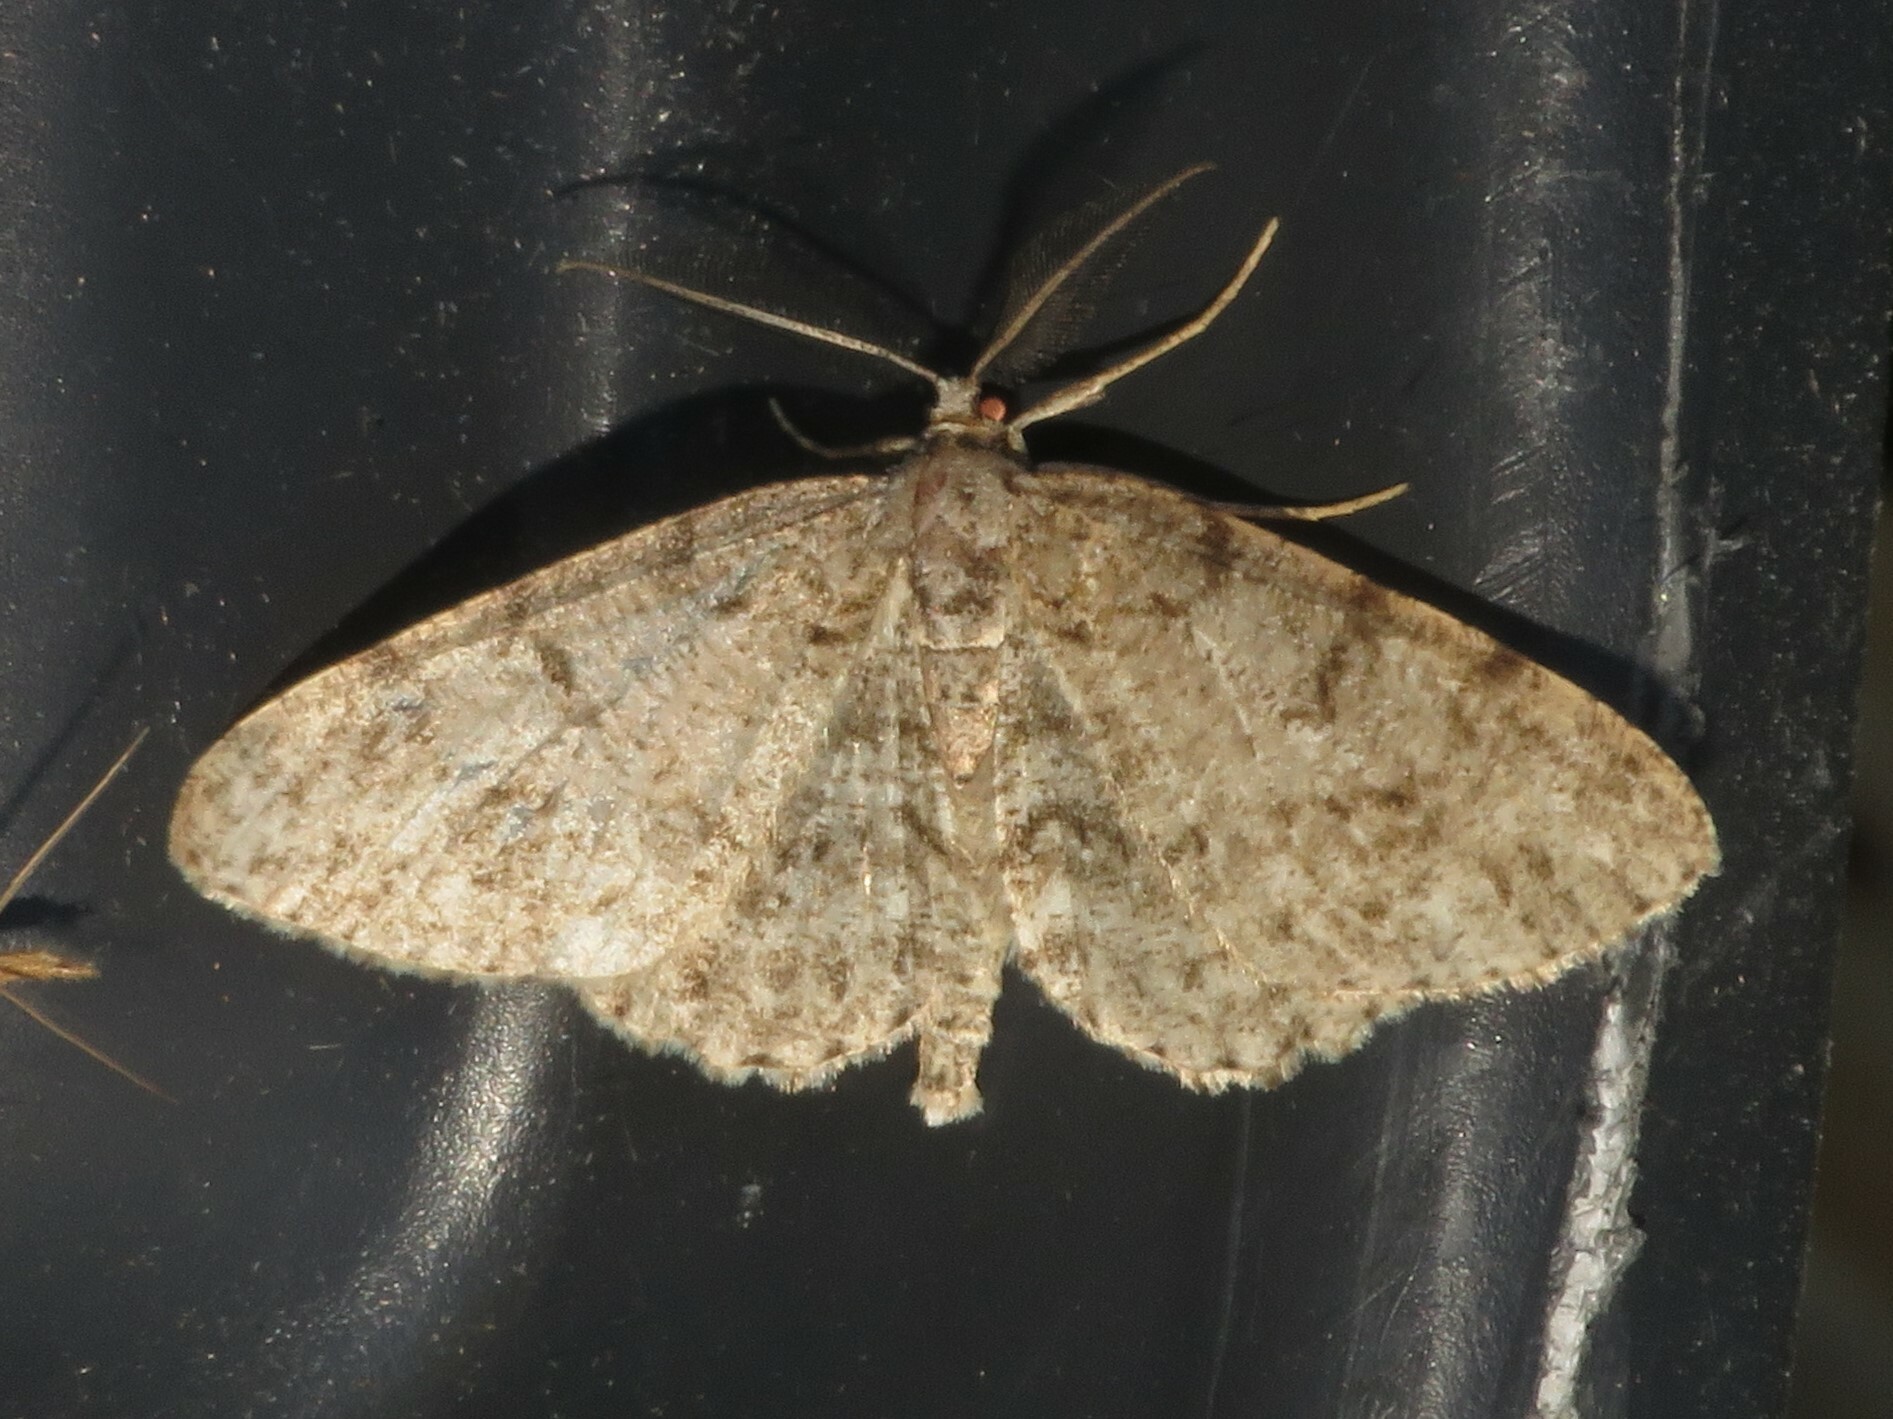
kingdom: Animalia
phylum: Arthropoda
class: Insecta
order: Lepidoptera
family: Geometridae
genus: Protoboarmia
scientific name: Protoboarmia porcelaria
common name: Porcelain gray
